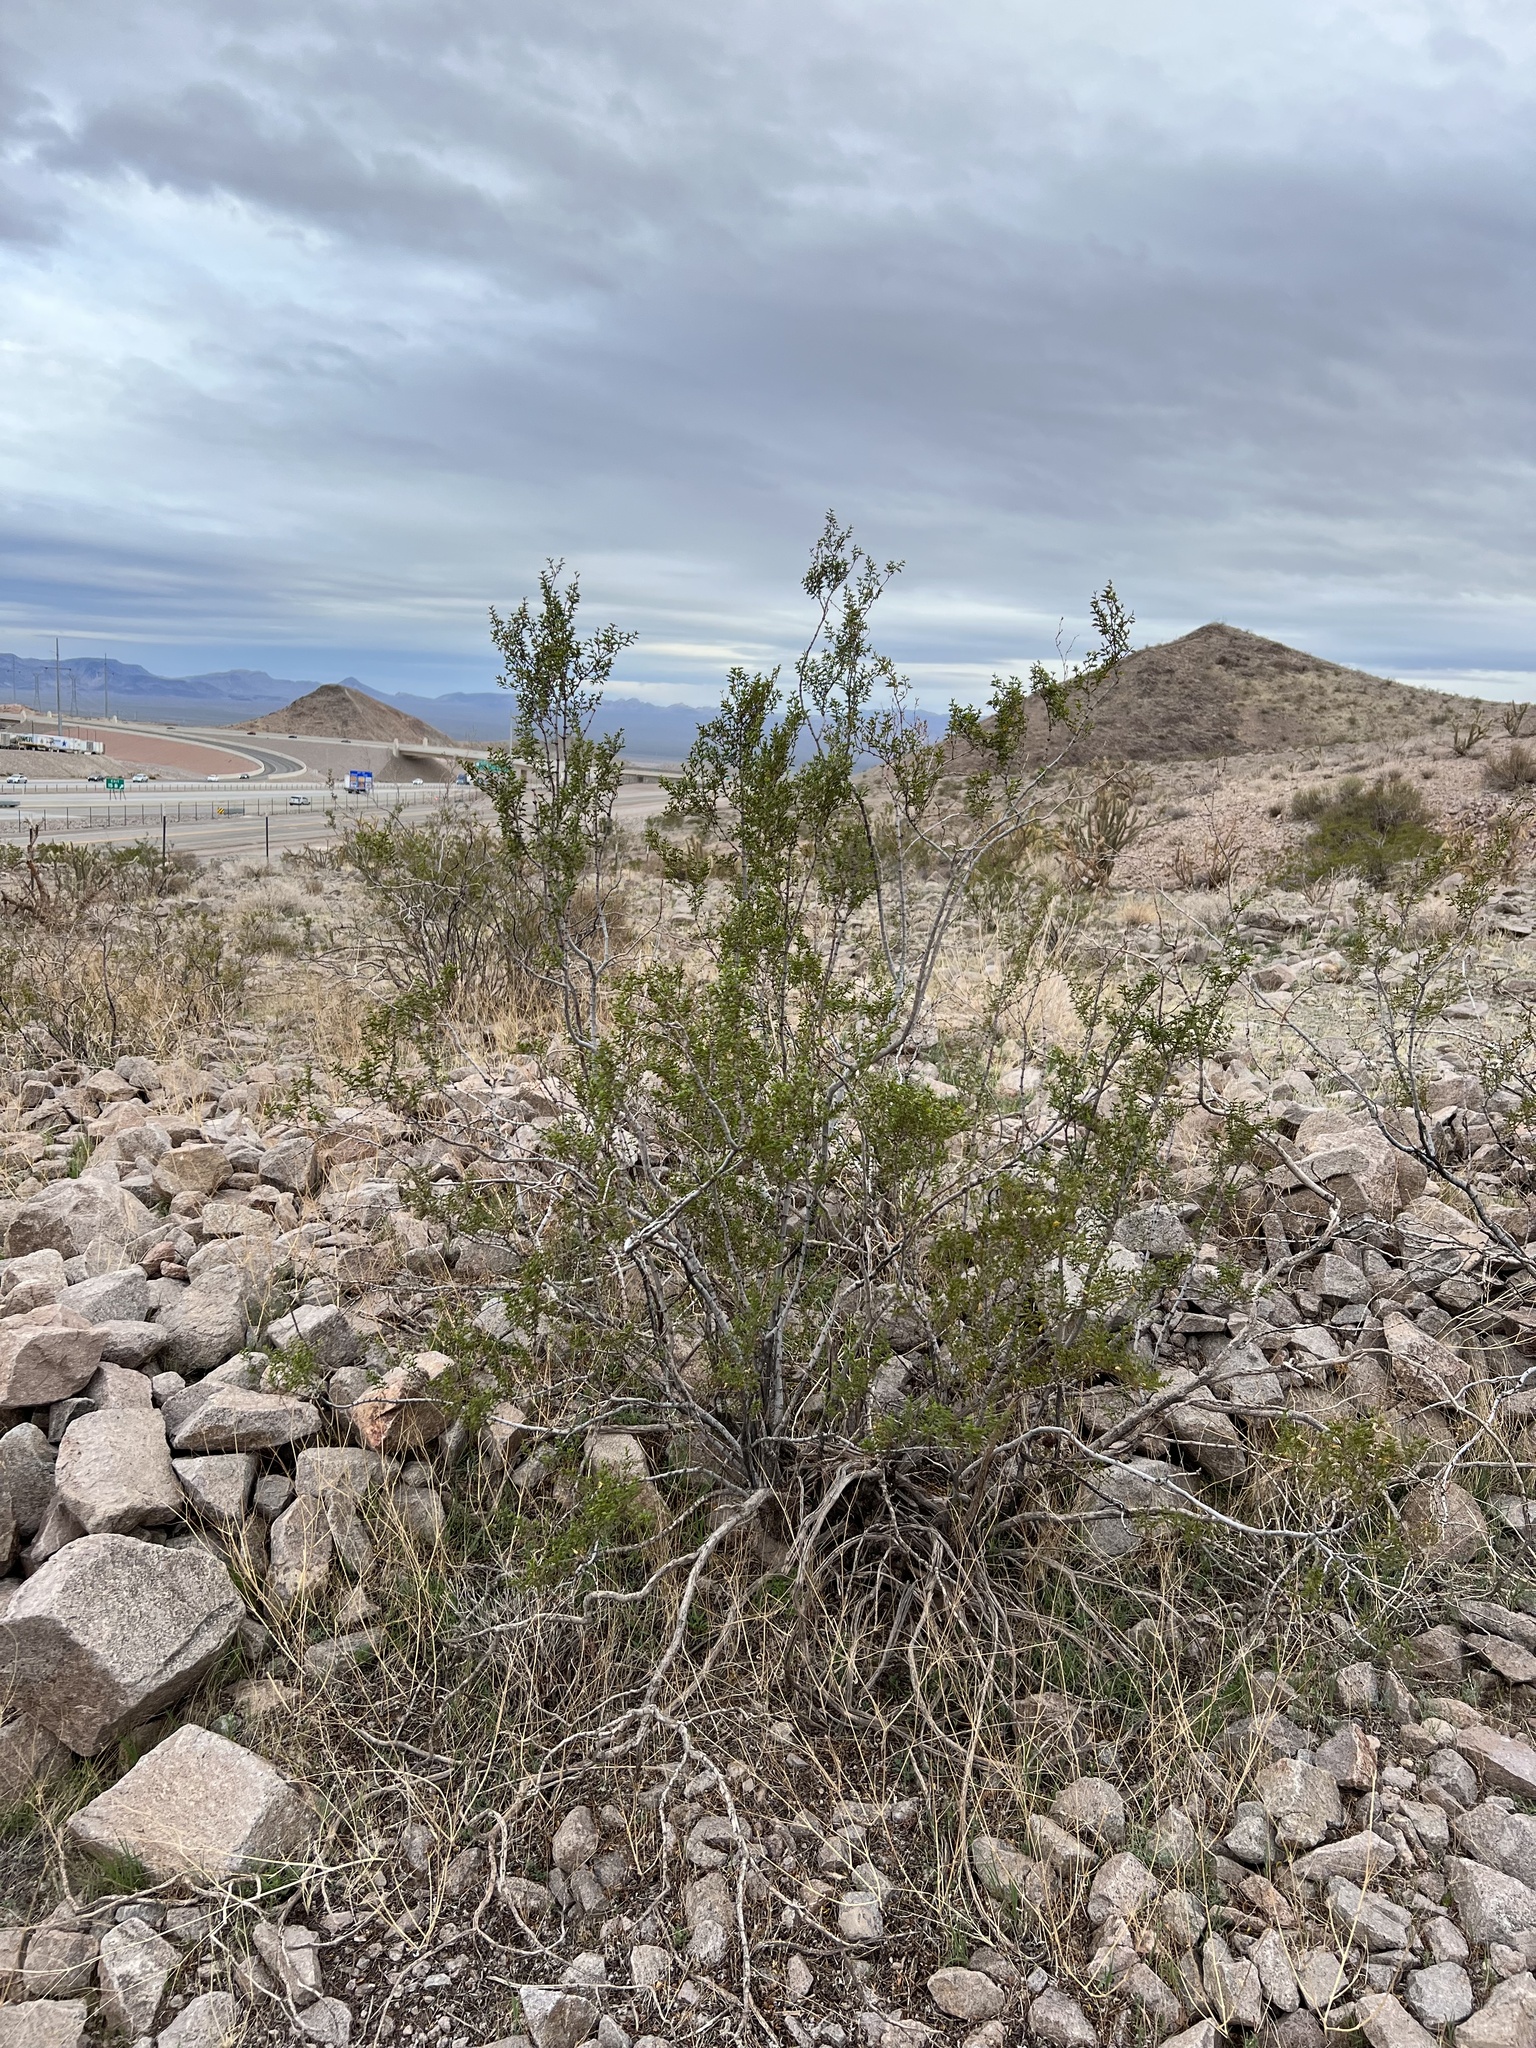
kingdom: Plantae
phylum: Tracheophyta
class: Magnoliopsida
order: Zygophyllales
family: Zygophyllaceae
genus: Larrea
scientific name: Larrea tridentata
